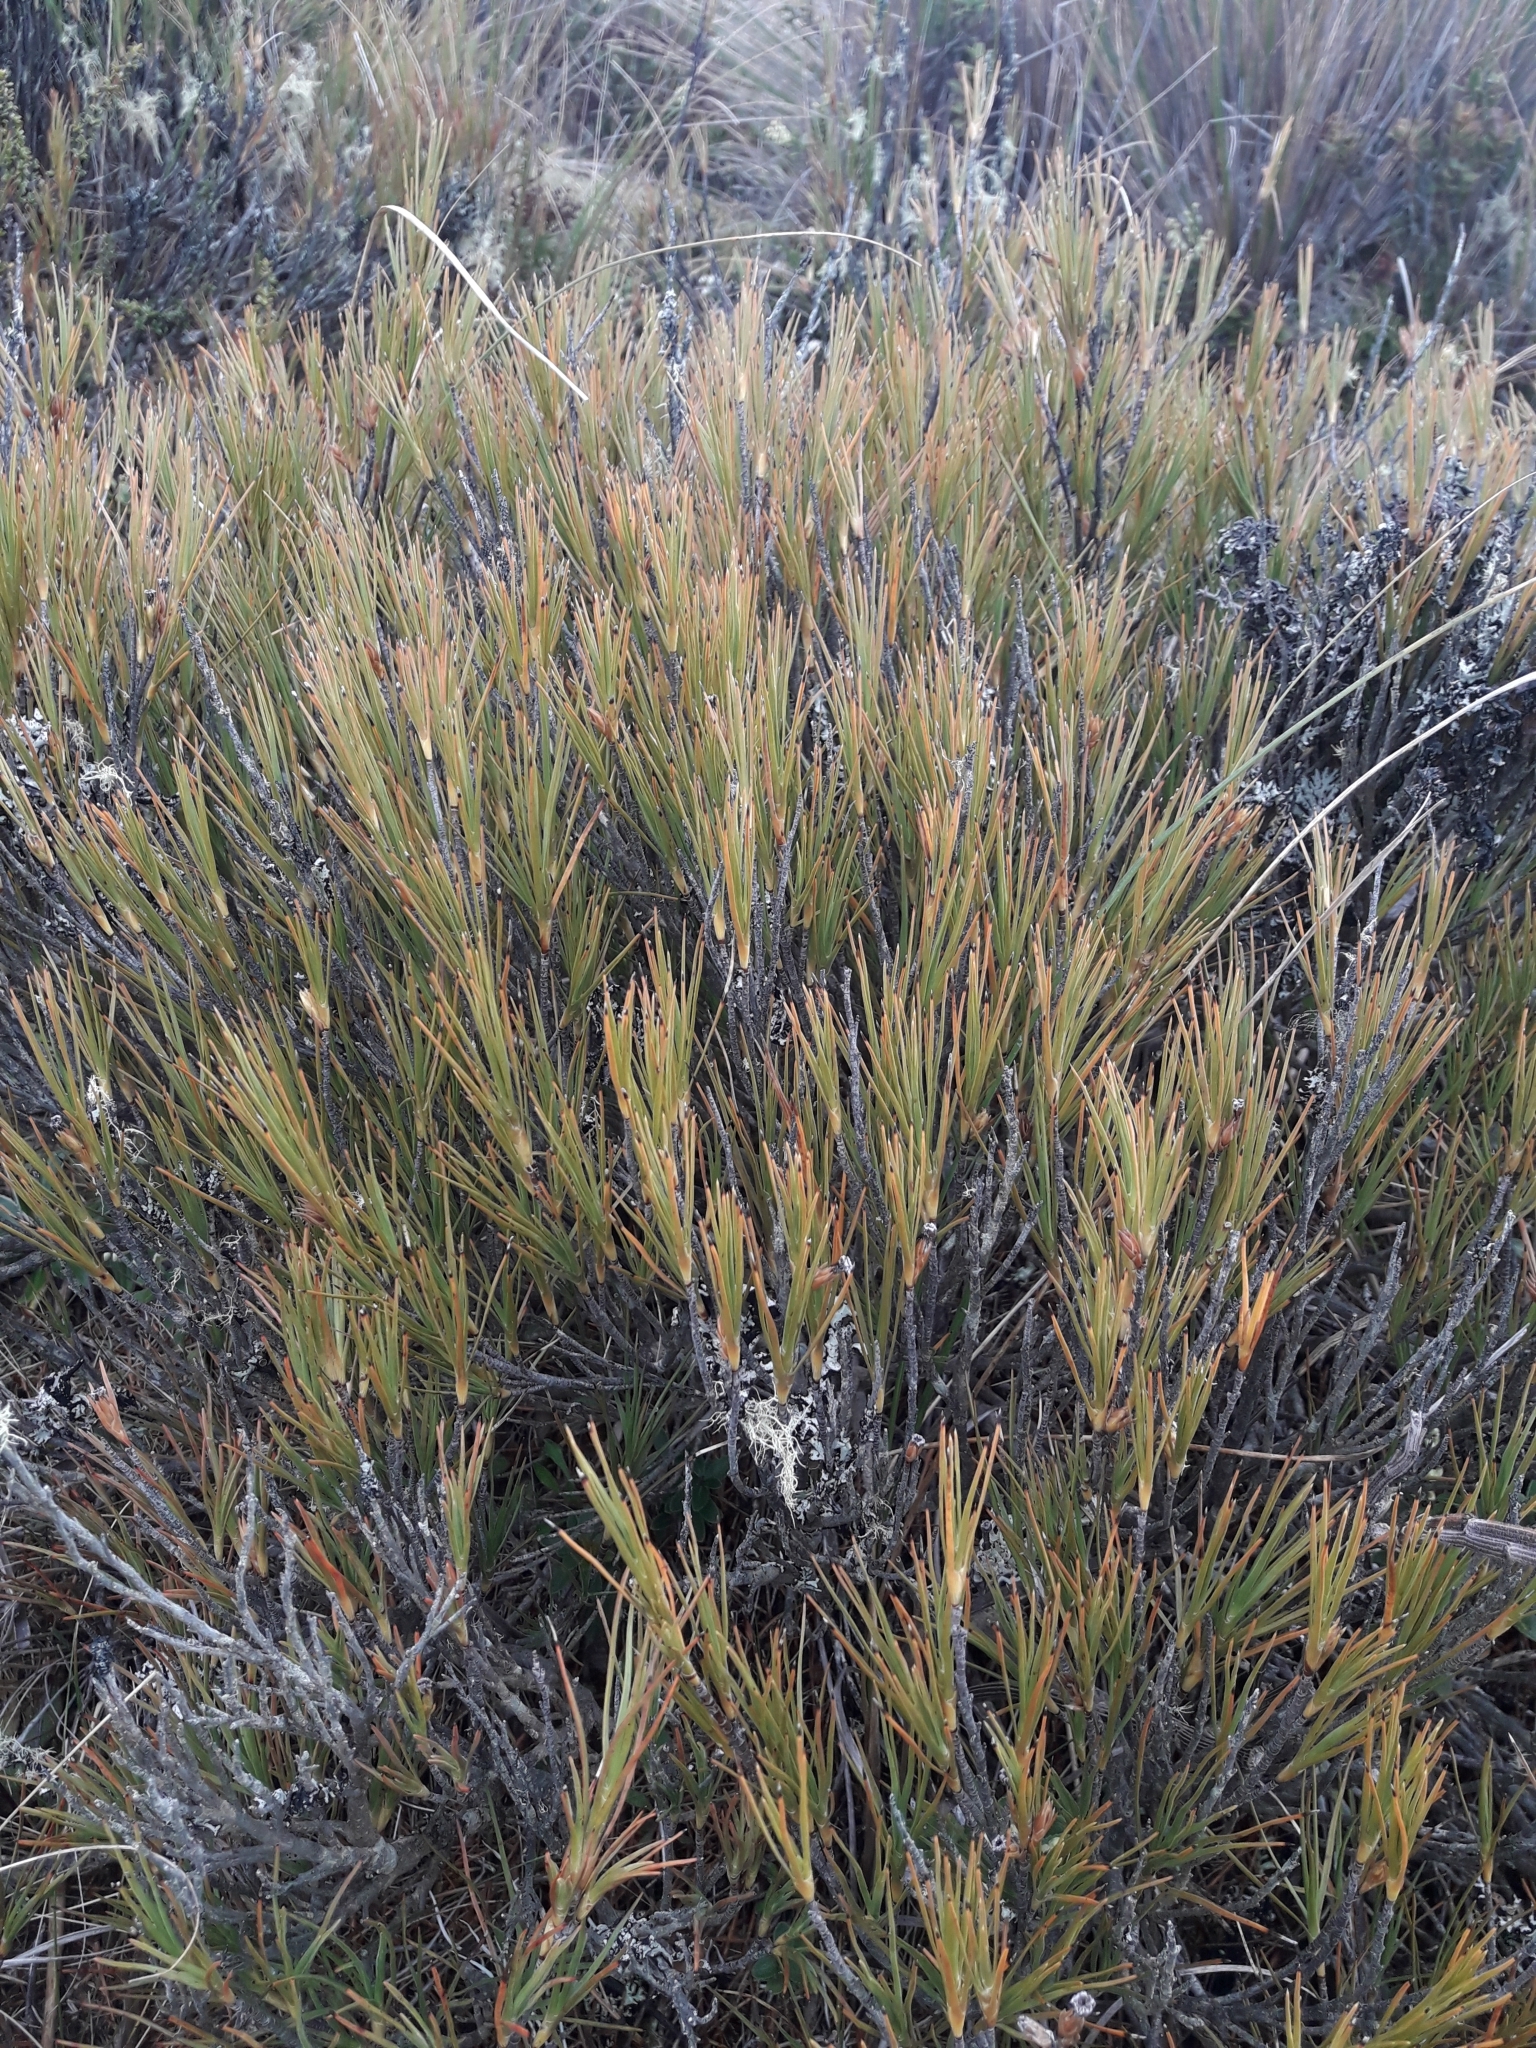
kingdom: Plantae
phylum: Tracheophyta
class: Magnoliopsida
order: Ericales
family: Ericaceae
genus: Dracophyllum
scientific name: Dracophyllum longifolium
